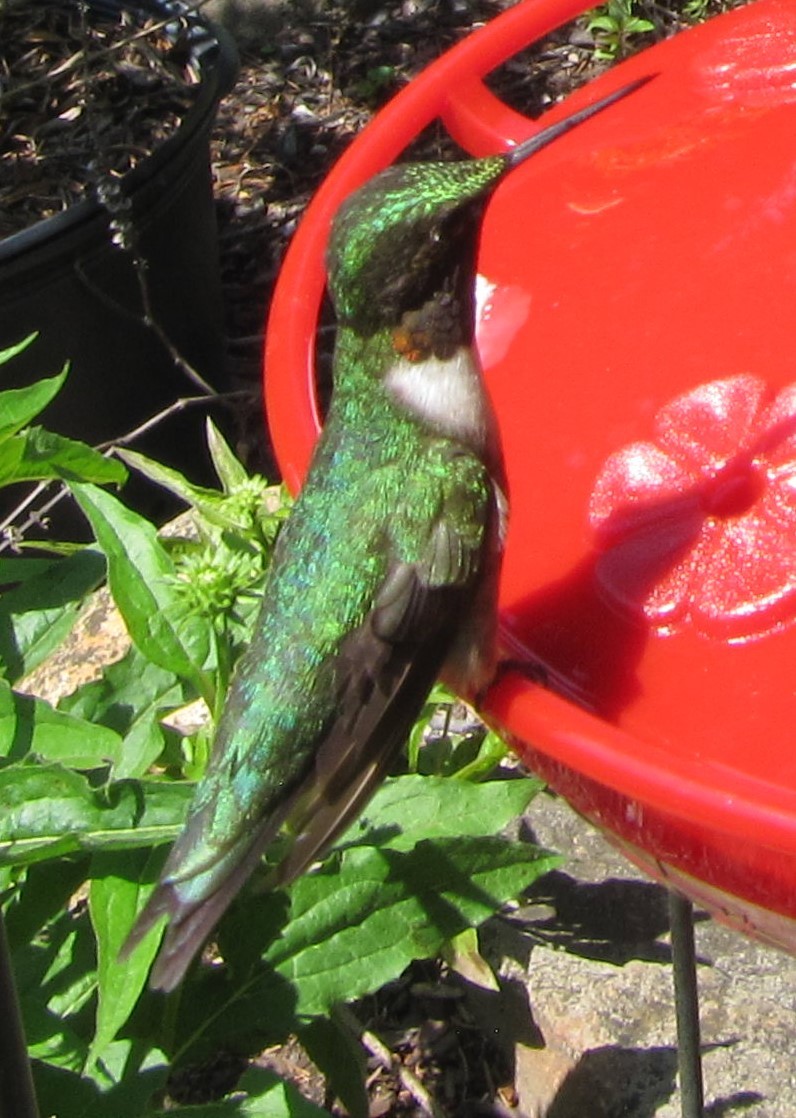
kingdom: Animalia
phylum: Chordata
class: Aves
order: Apodiformes
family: Trochilidae
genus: Archilochus
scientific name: Archilochus colubris
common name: Ruby-throated hummingbird
